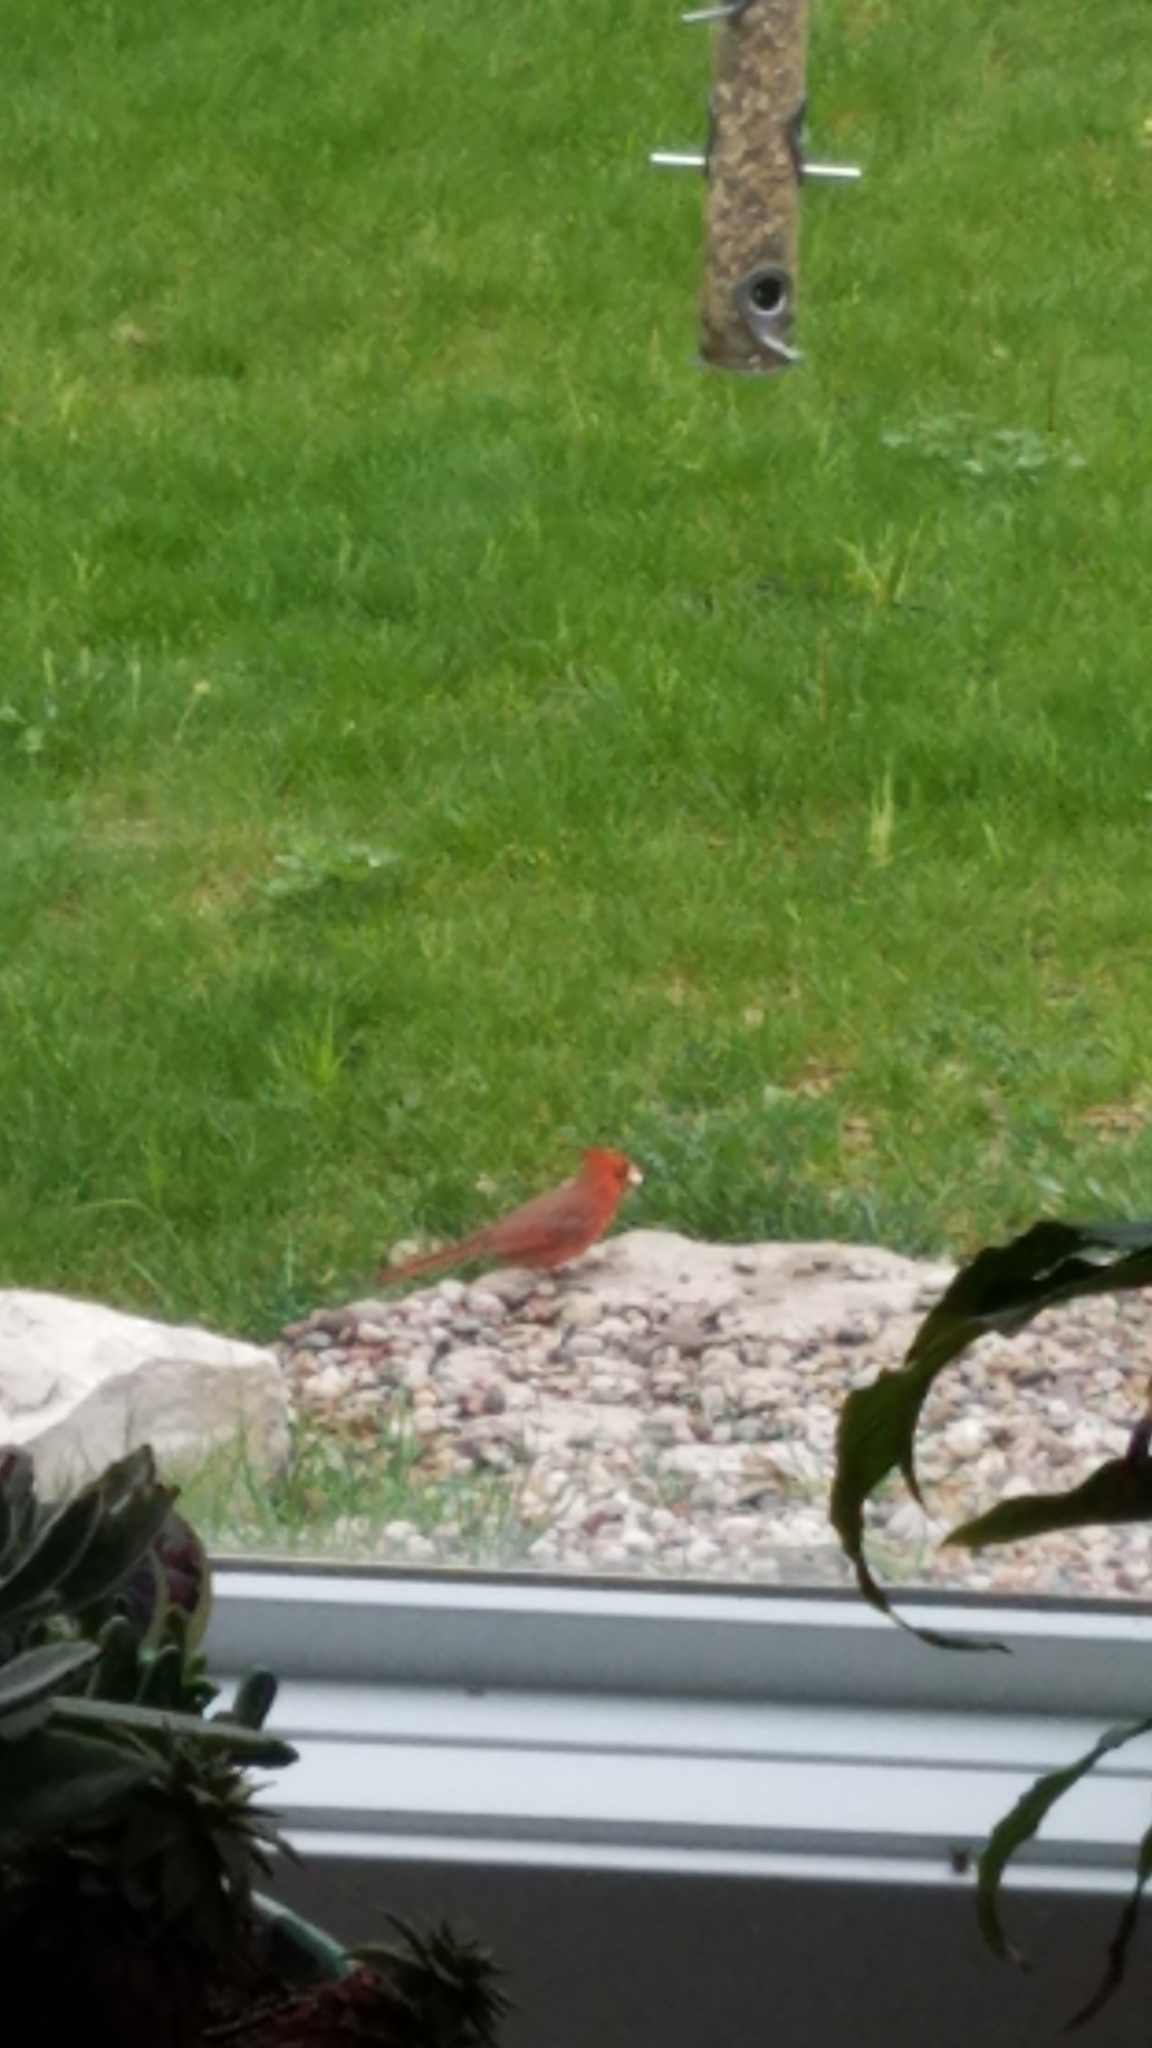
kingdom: Animalia
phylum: Chordata
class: Aves
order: Passeriformes
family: Cardinalidae
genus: Cardinalis
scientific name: Cardinalis cardinalis
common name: Northern cardinal
